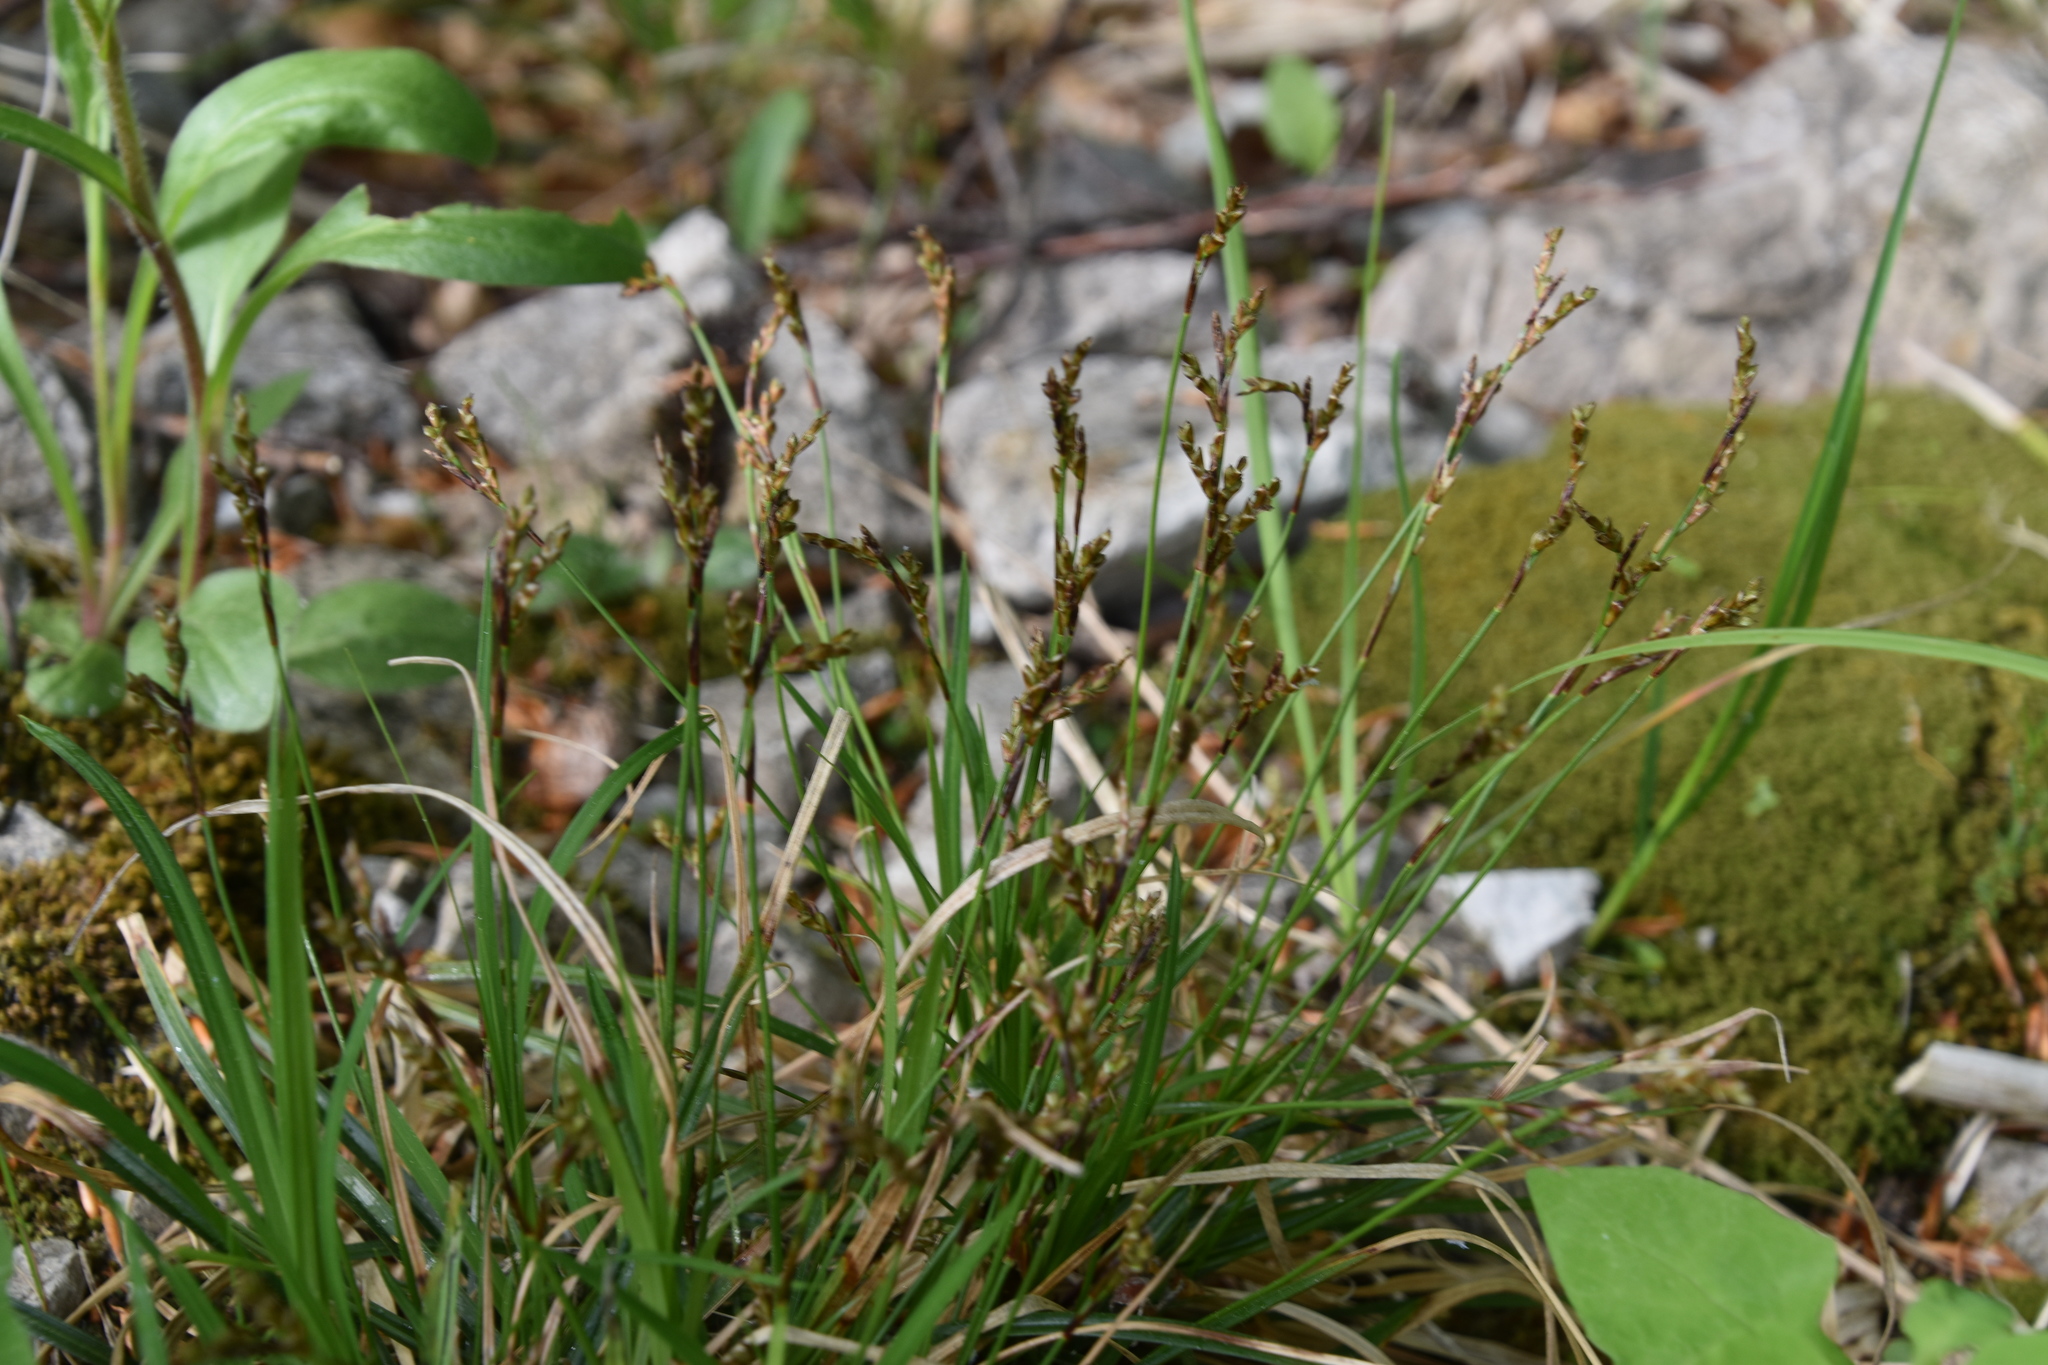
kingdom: Plantae
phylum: Tracheophyta
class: Liliopsida
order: Poales
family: Cyperaceae
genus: Carex
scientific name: Carex digitata
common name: Fingered sedge
